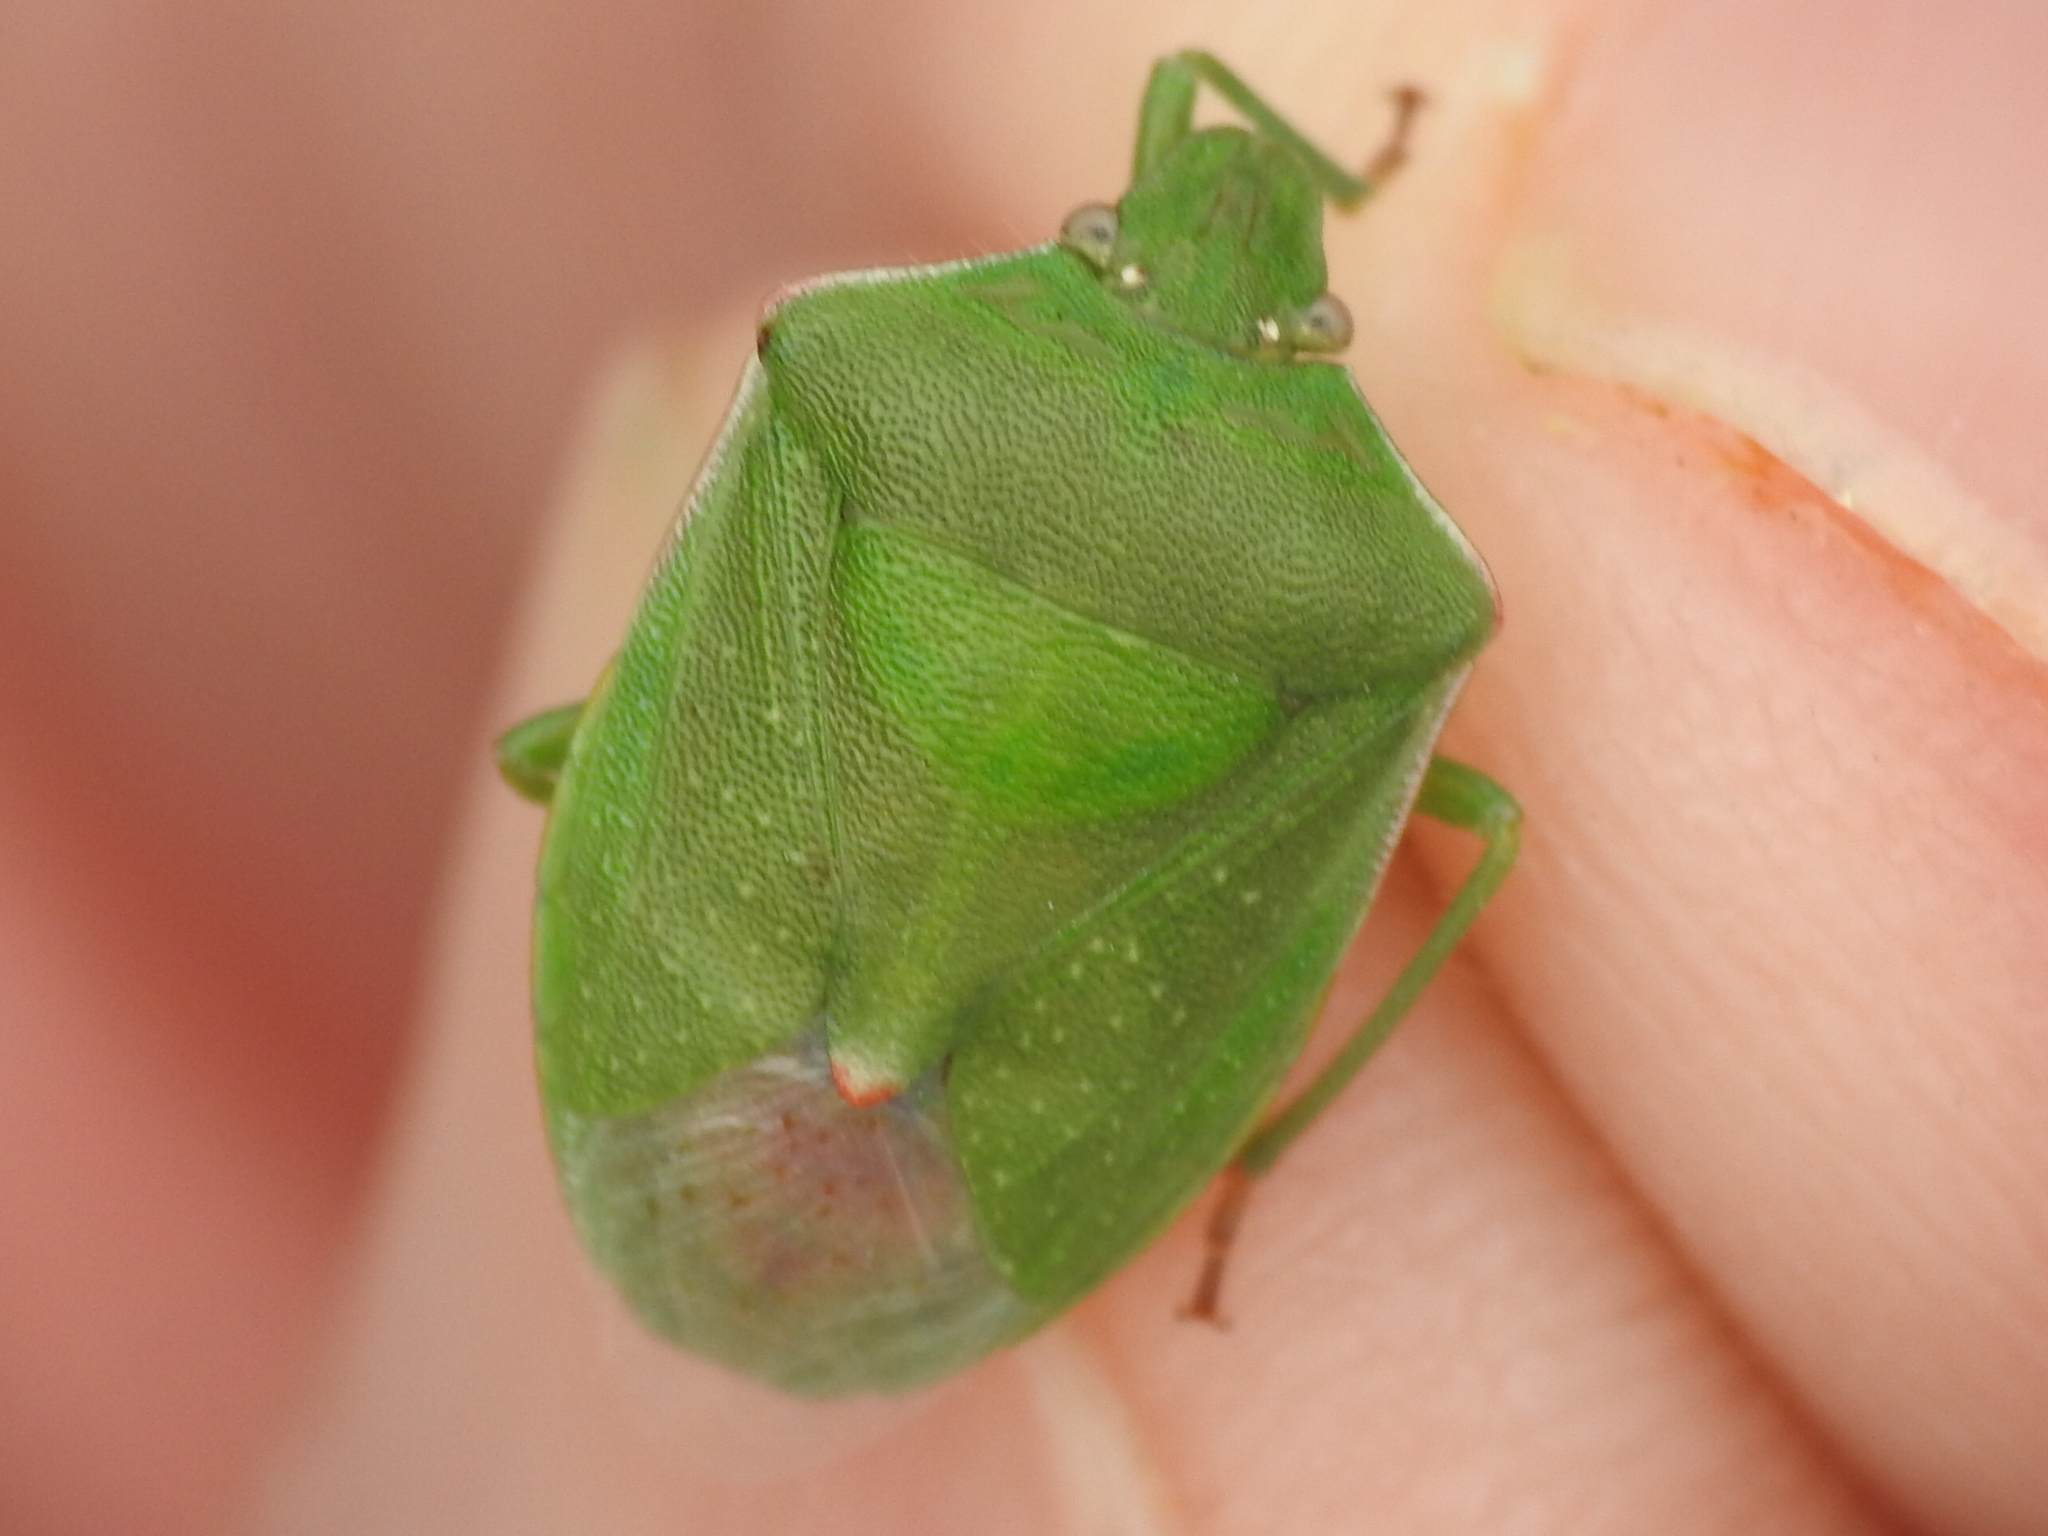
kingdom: Animalia
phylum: Arthropoda
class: Insecta
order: Hemiptera
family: Pentatomidae
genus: Thyanta
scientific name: Thyanta accerra
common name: Stink bug
